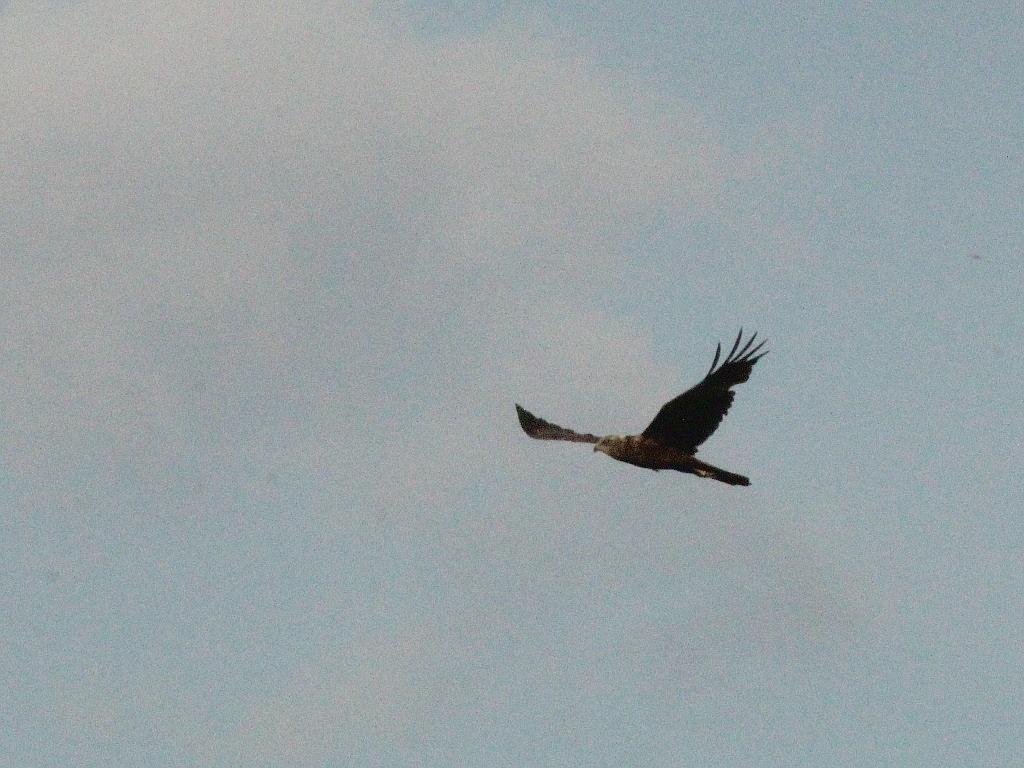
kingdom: Animalia
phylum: Chordata
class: Aves
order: Accipitriformes
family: Accipitridae
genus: Circus
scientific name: Circus aeruginosus
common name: Western marsh harrier
